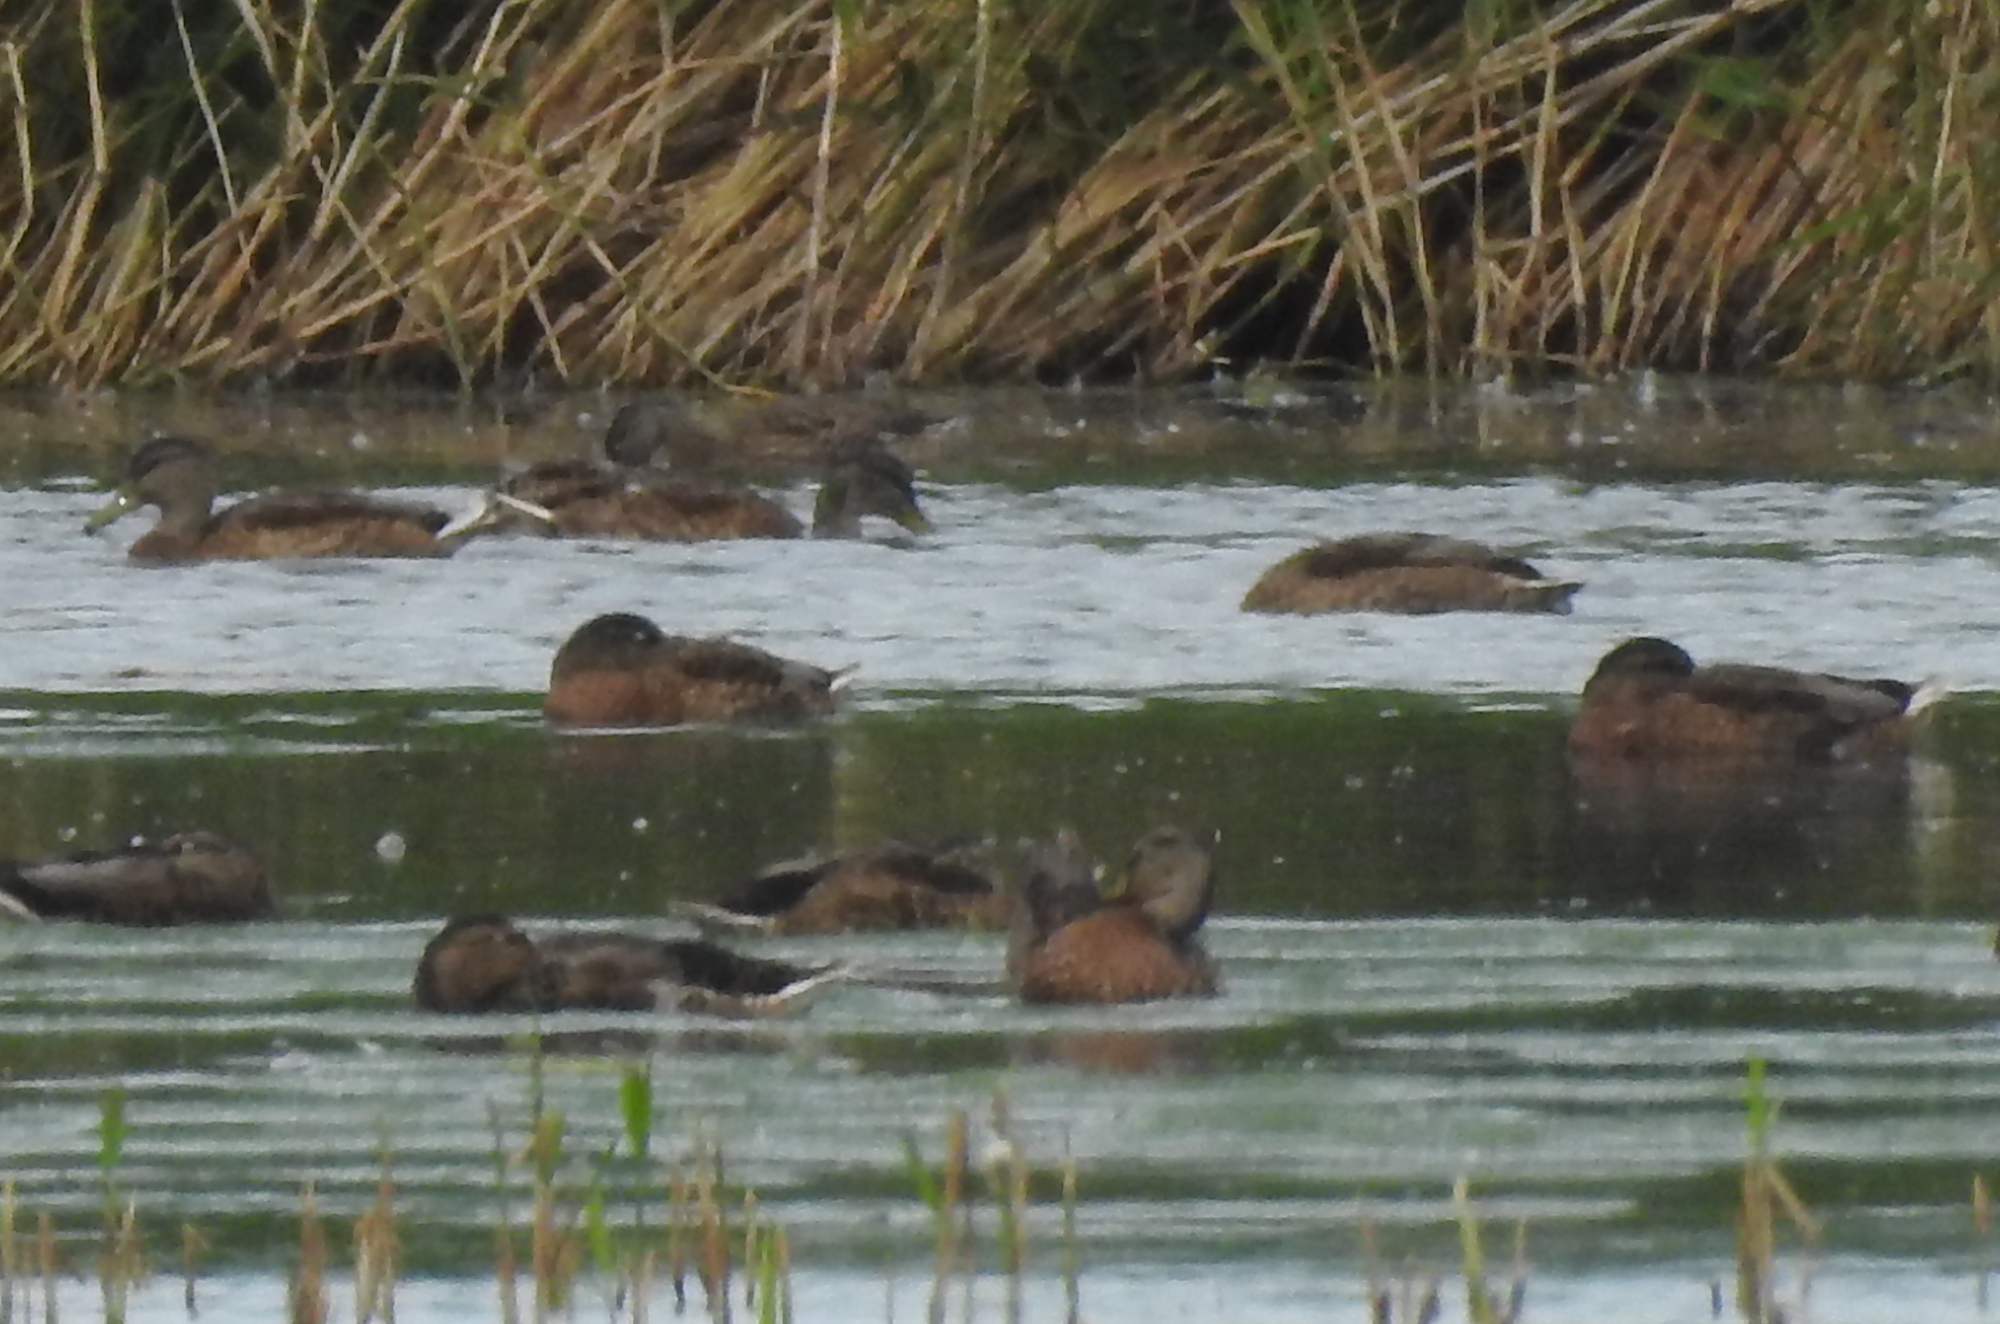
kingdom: Animalia
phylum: Chordata
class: Aves
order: Anseriformes
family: Anatidae
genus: Anas
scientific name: Anas platyrhynchos
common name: Mallard
